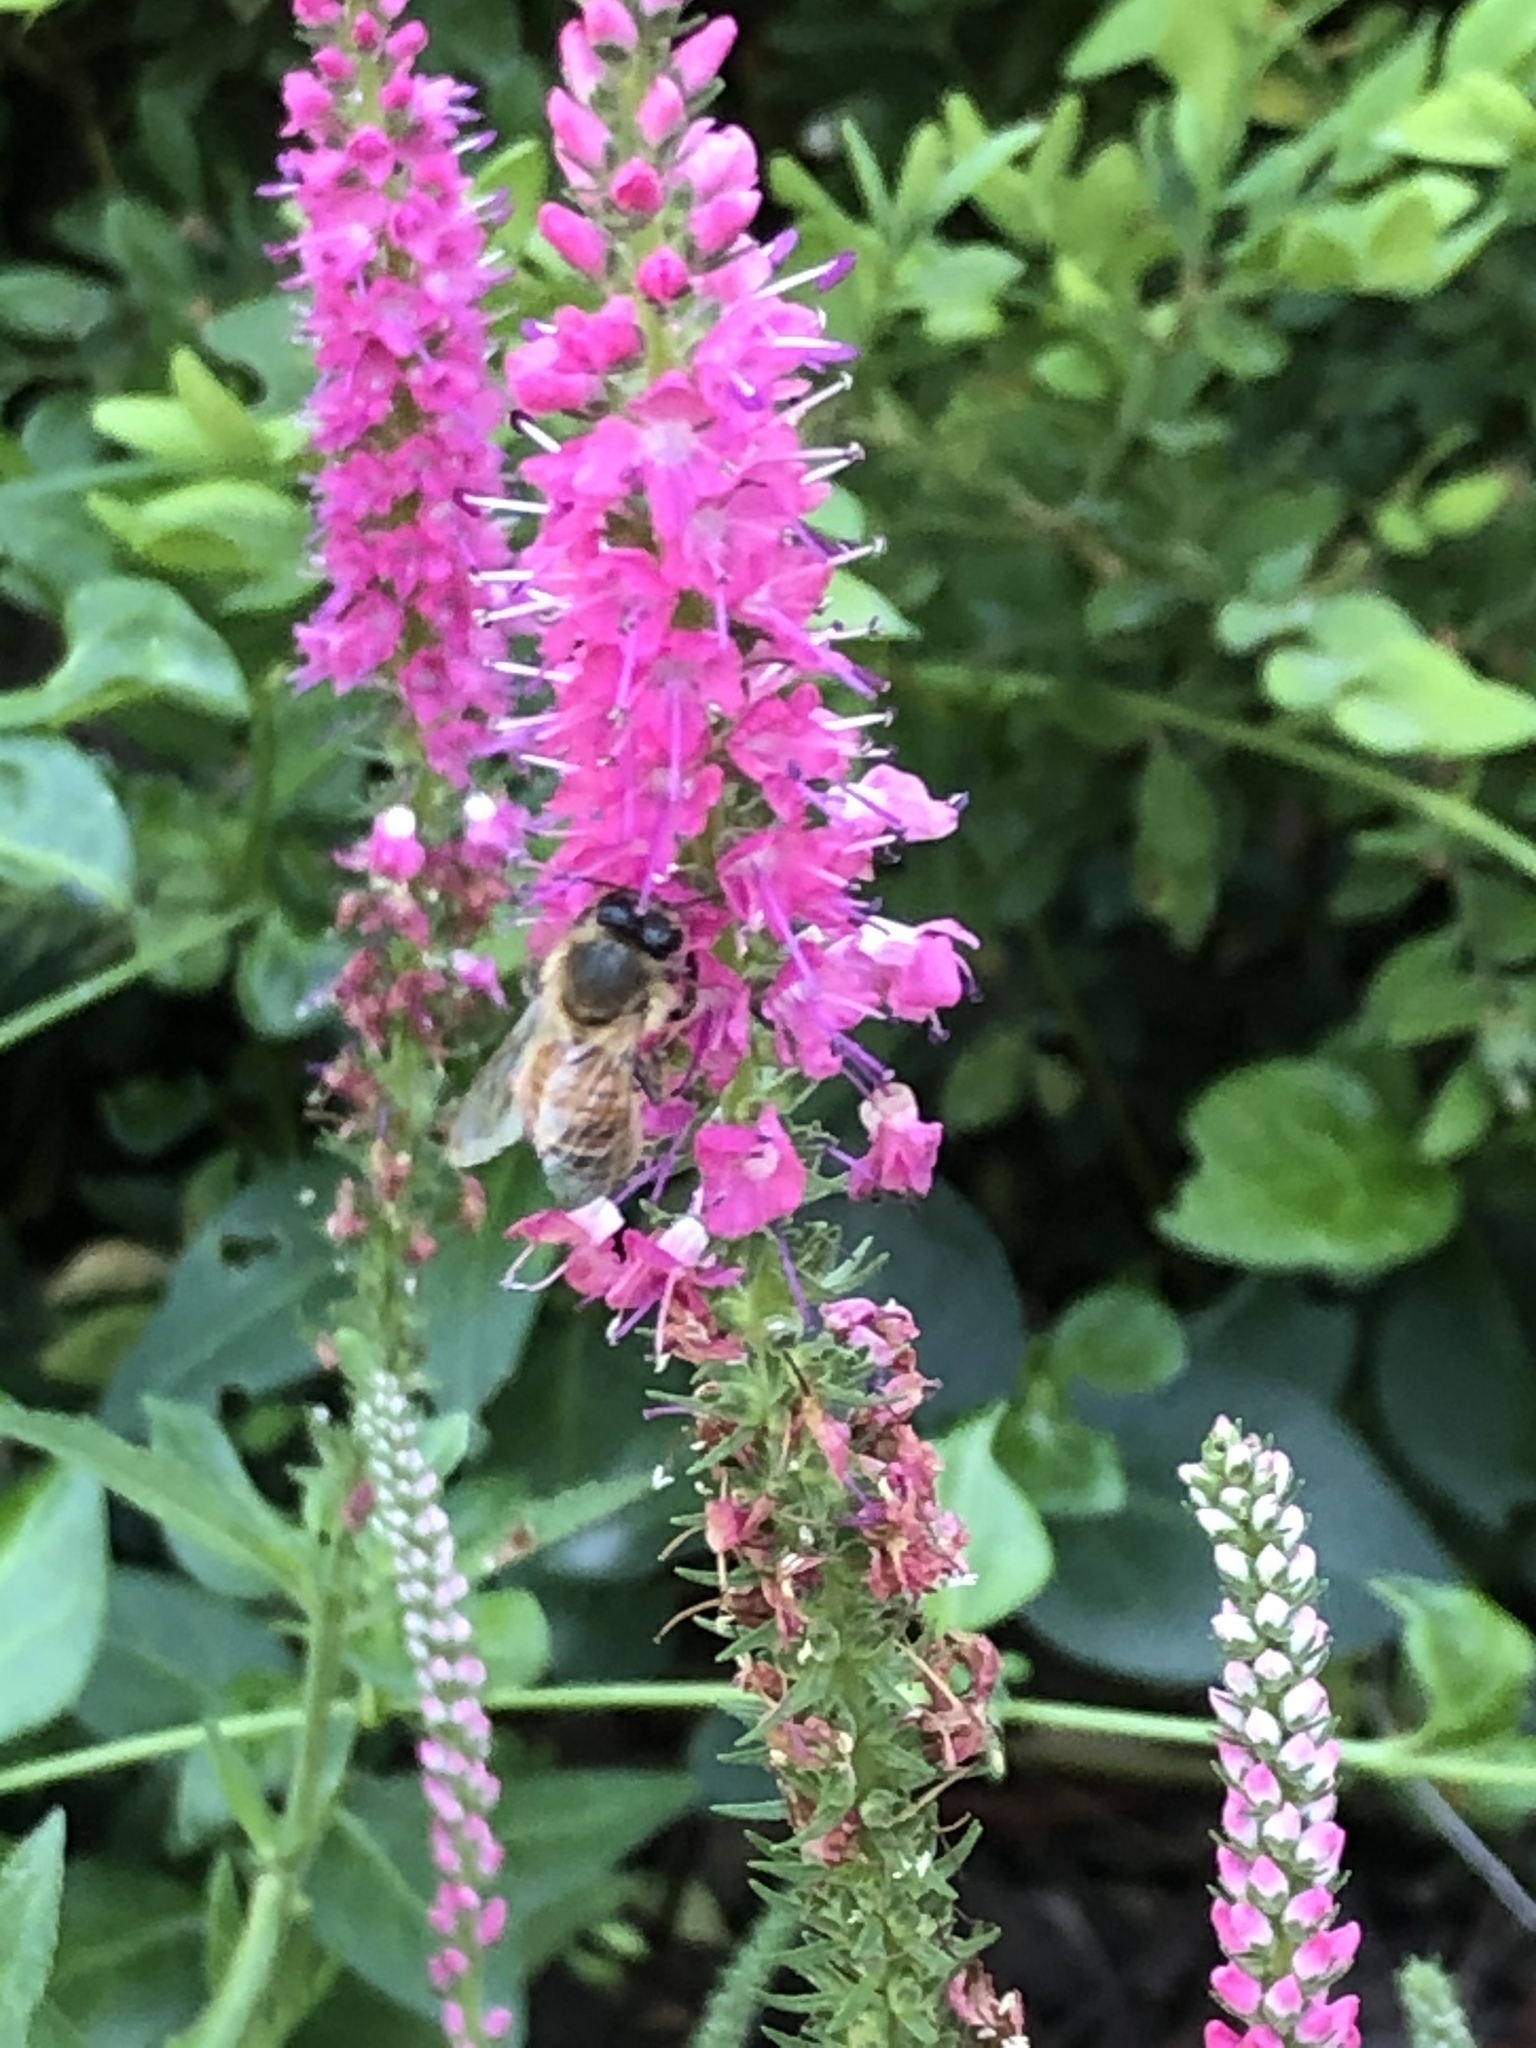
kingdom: Animalia
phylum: Arthropoda
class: Insecta
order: Hymenoptera
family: Apidae
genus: Apis
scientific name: Apis mellifera
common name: Honey bee
